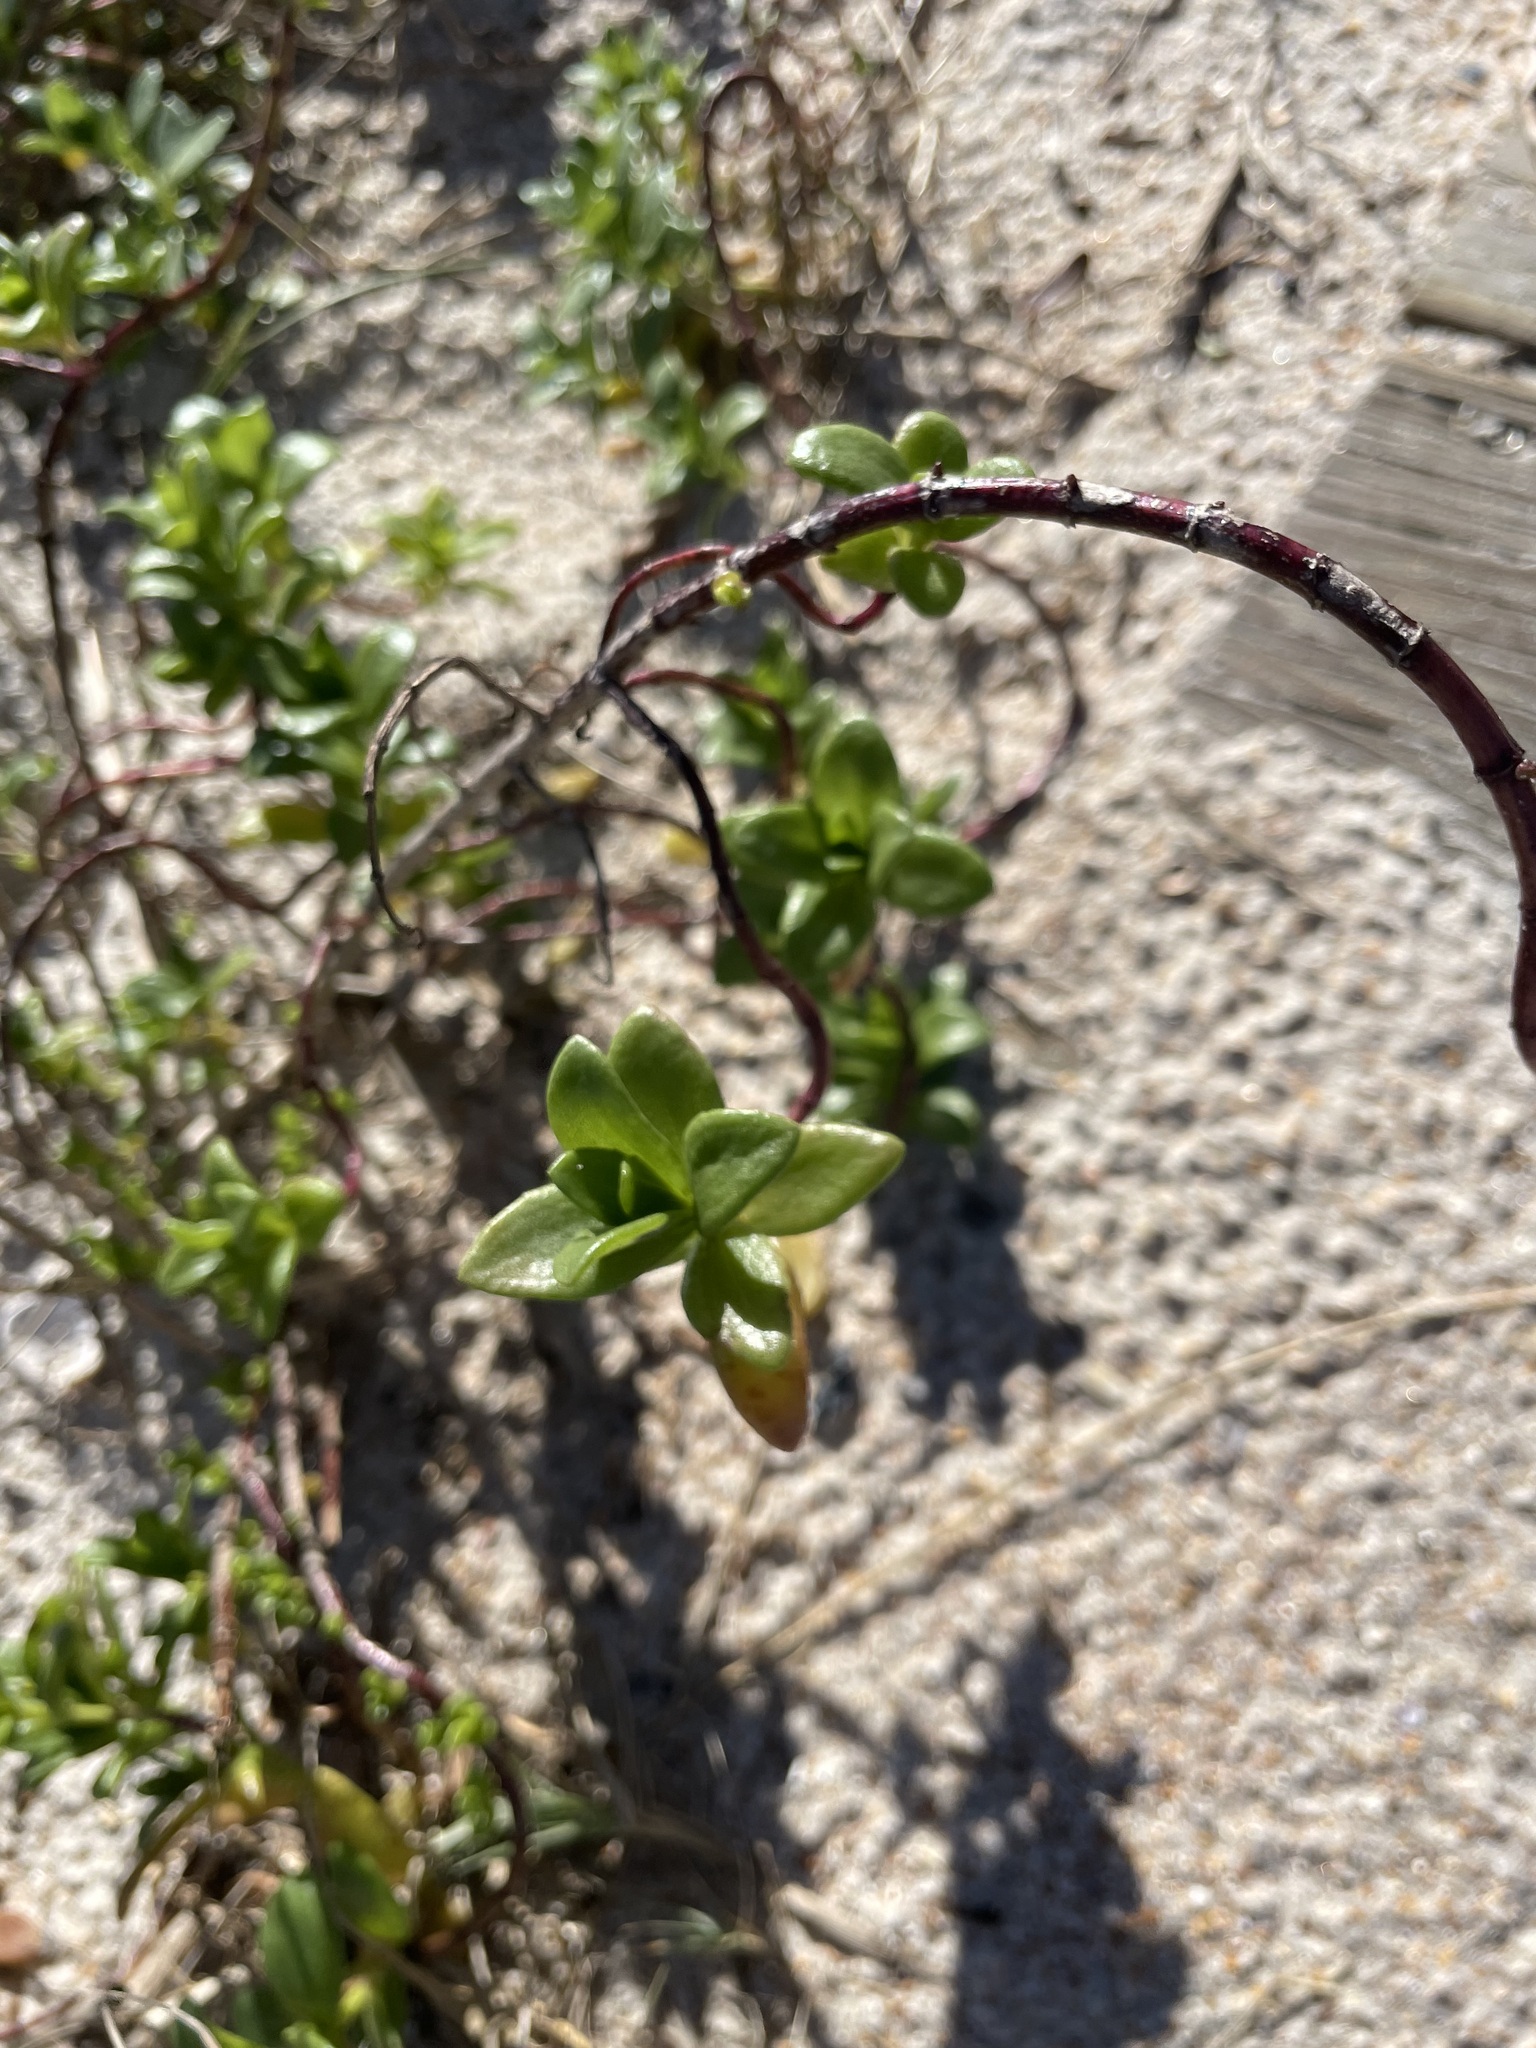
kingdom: Plantae
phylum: Tracheophyta
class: Magnoliopsida
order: Asterales
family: Asteraceae
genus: Iva
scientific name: Iva imbricata
